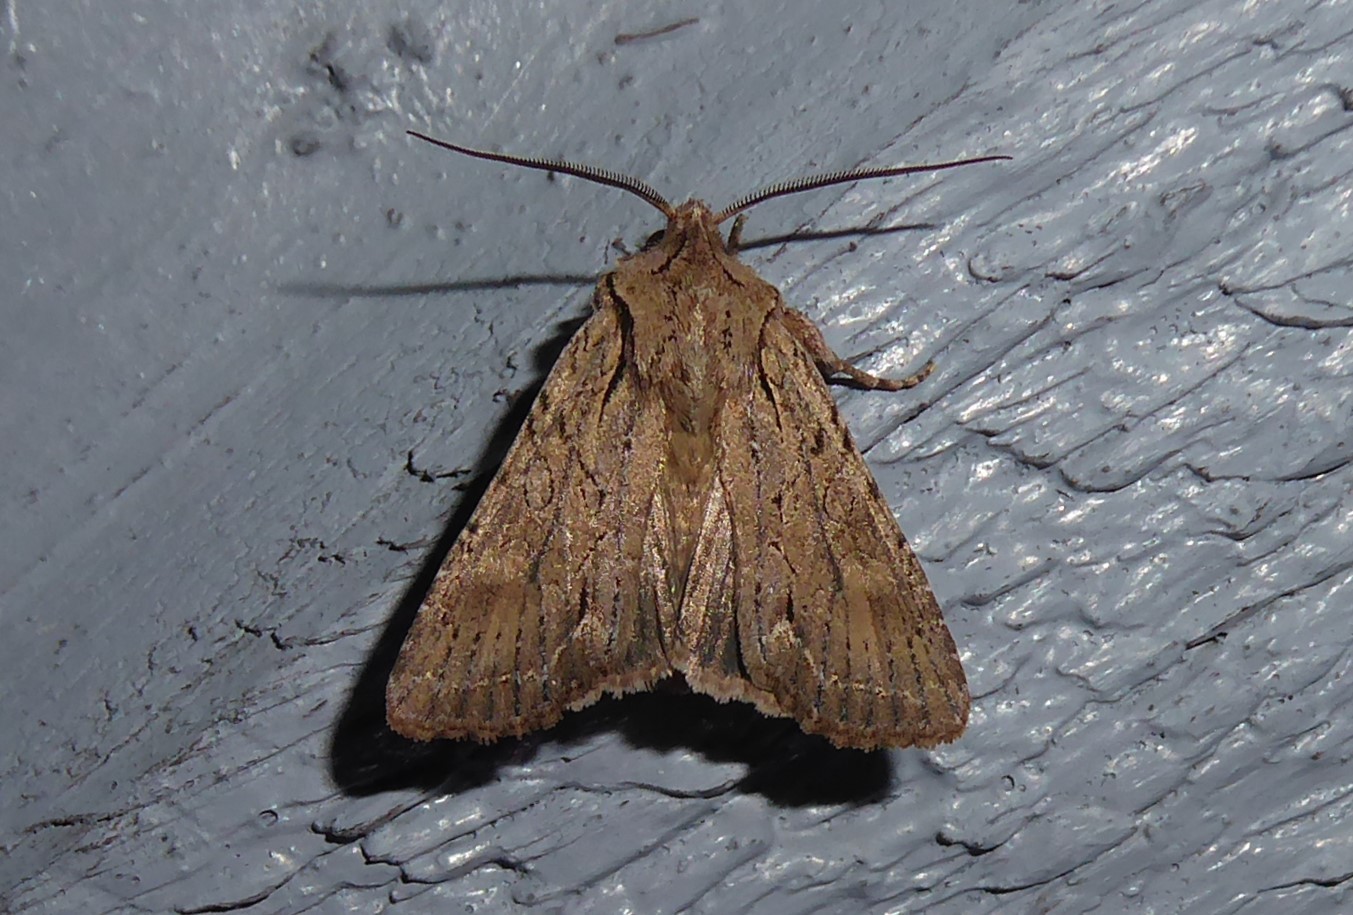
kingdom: Animalia
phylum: Arthropoda
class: Insecta
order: Lepidoptera
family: Noctuidae
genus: Ichneutica
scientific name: Ichneutica
